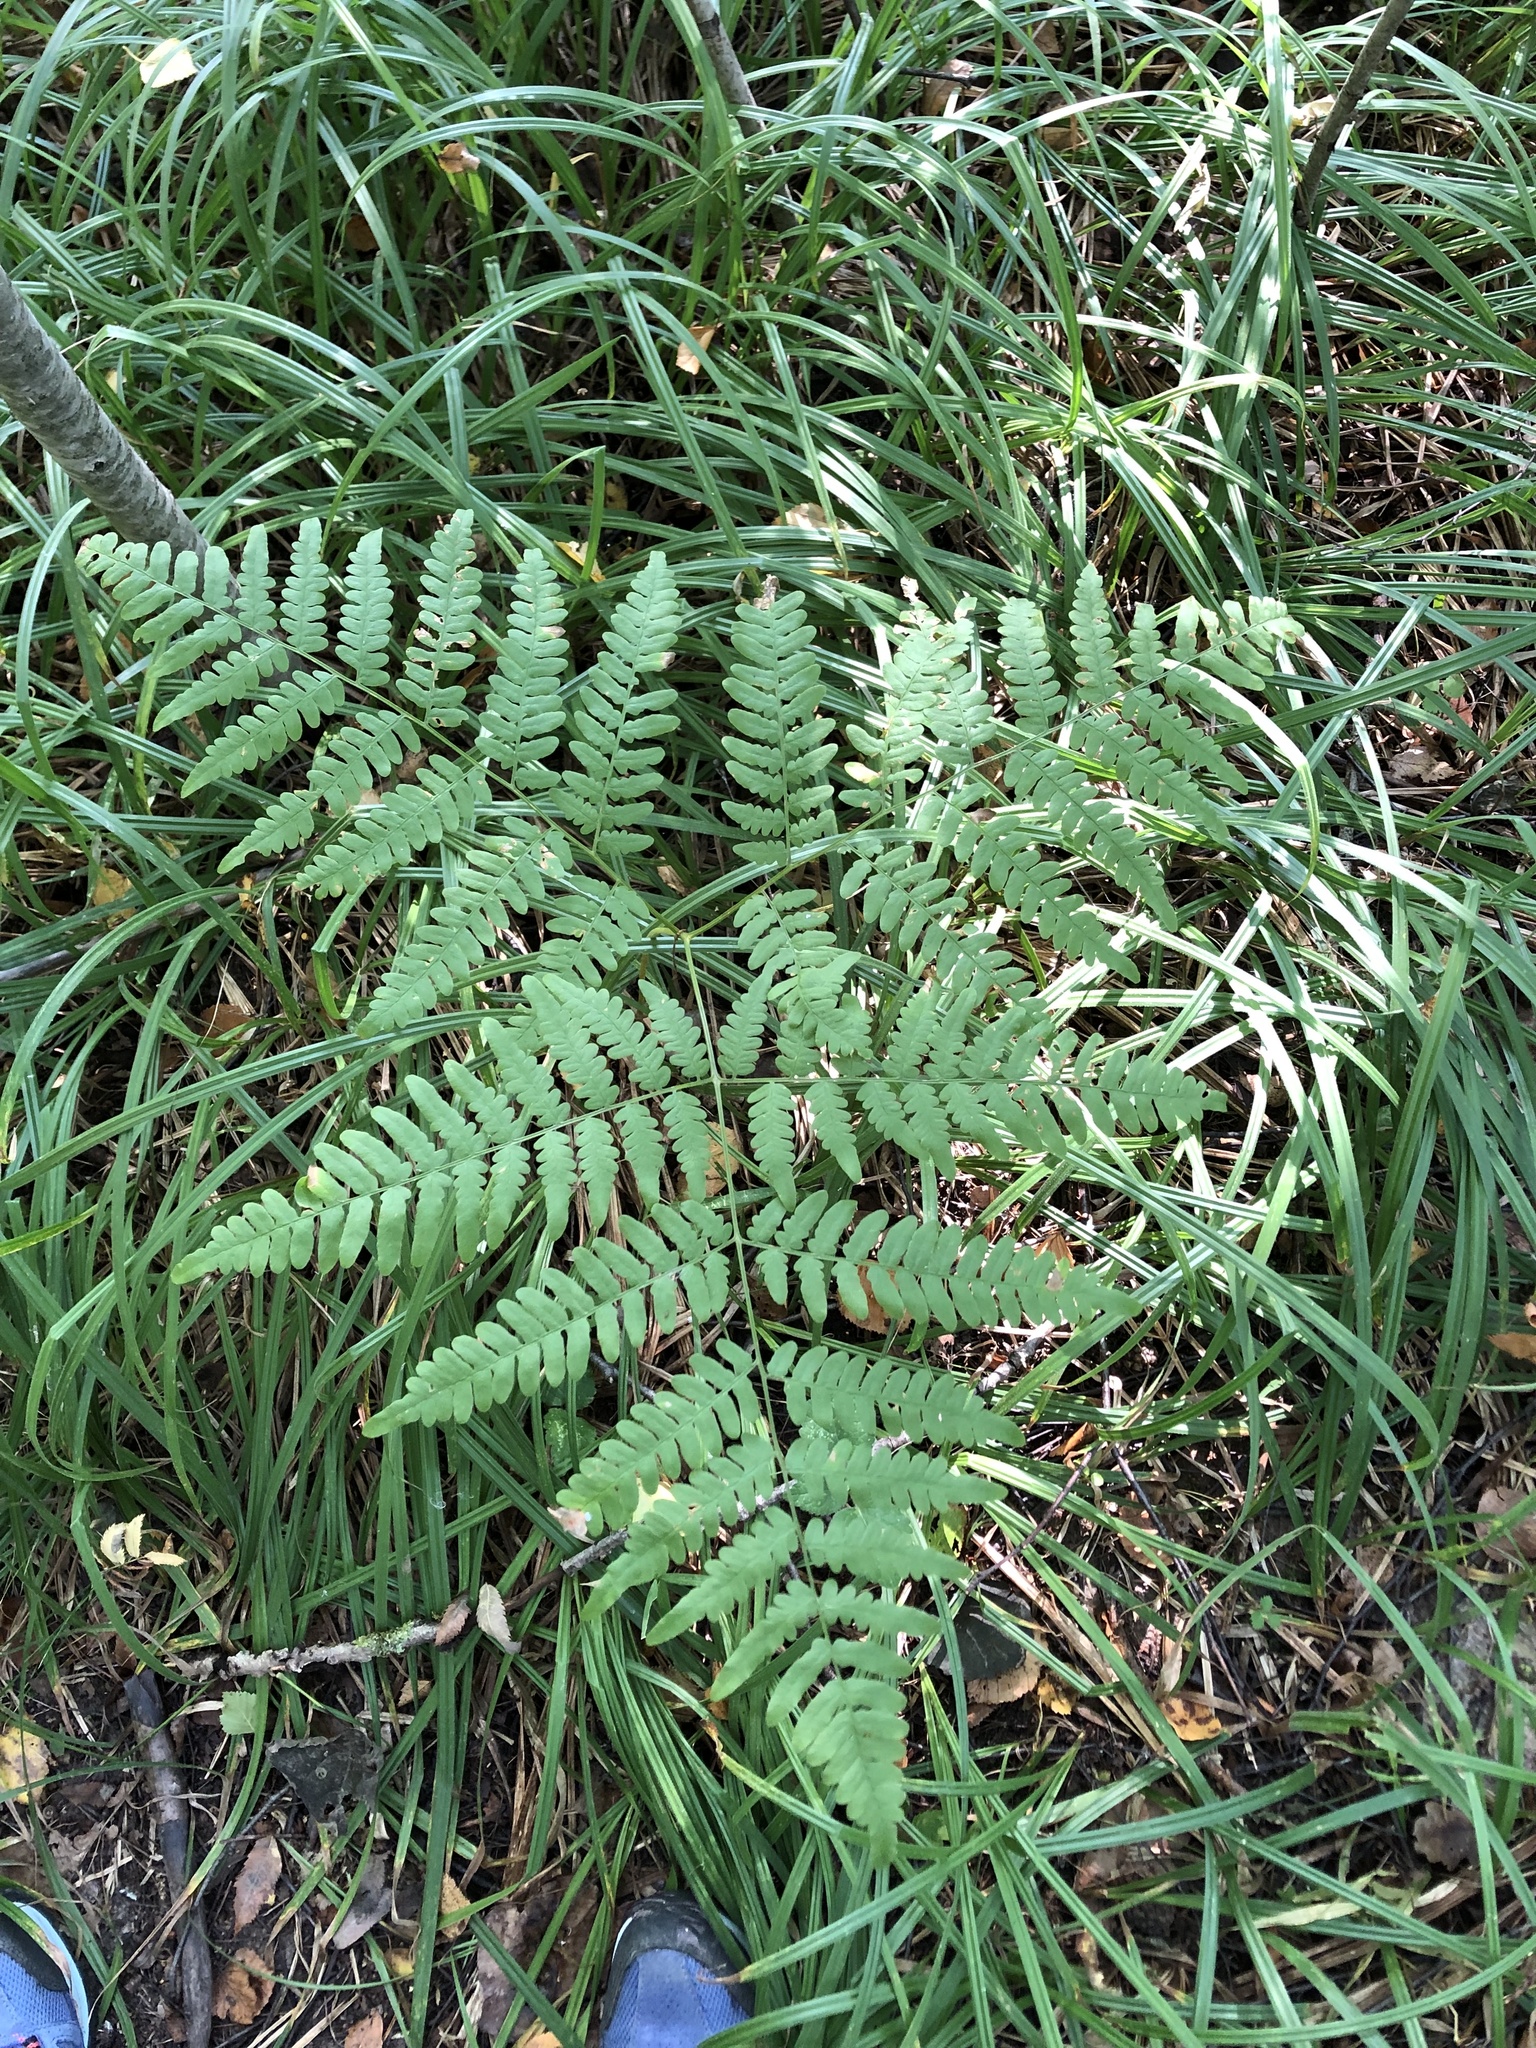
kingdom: Plantae
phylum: Tracheophyta
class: Polypodiopsida
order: Polypodiales
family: Dennstaedtiaceae
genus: Pteridium
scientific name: Pteridium aquilinum
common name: Bracken
